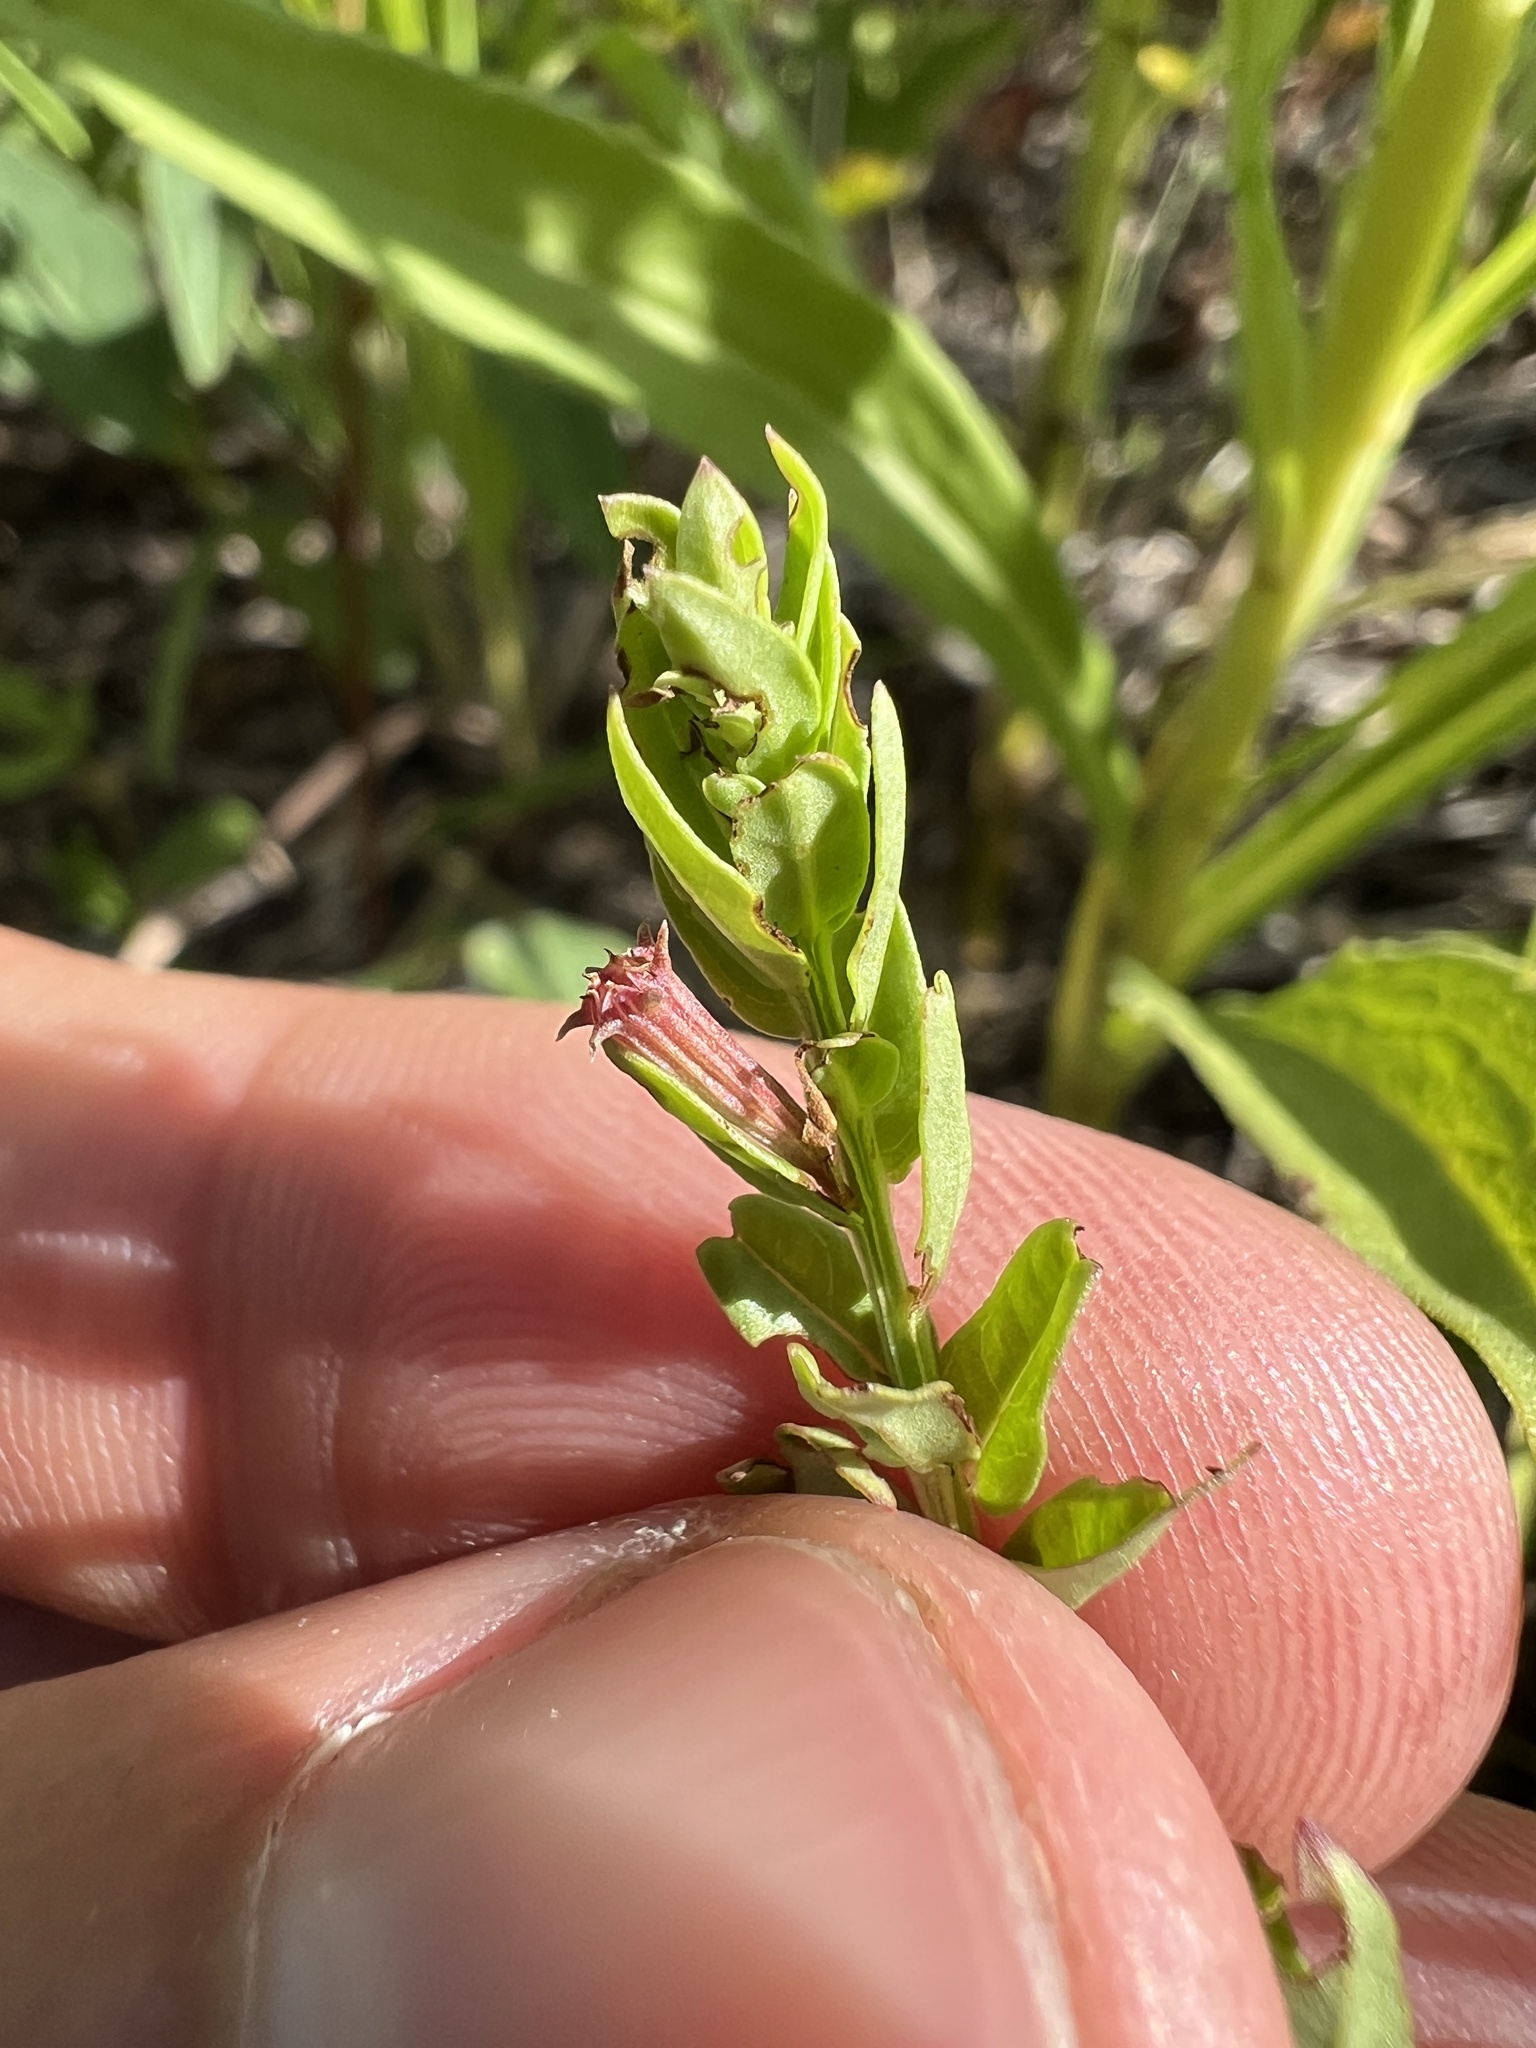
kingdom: Plantae
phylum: Tracheophyta
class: Magnoliopsida
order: Myrtales
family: Lythraceae
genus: Lythrum
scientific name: Lythrum alatum
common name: Winged loosestrife
